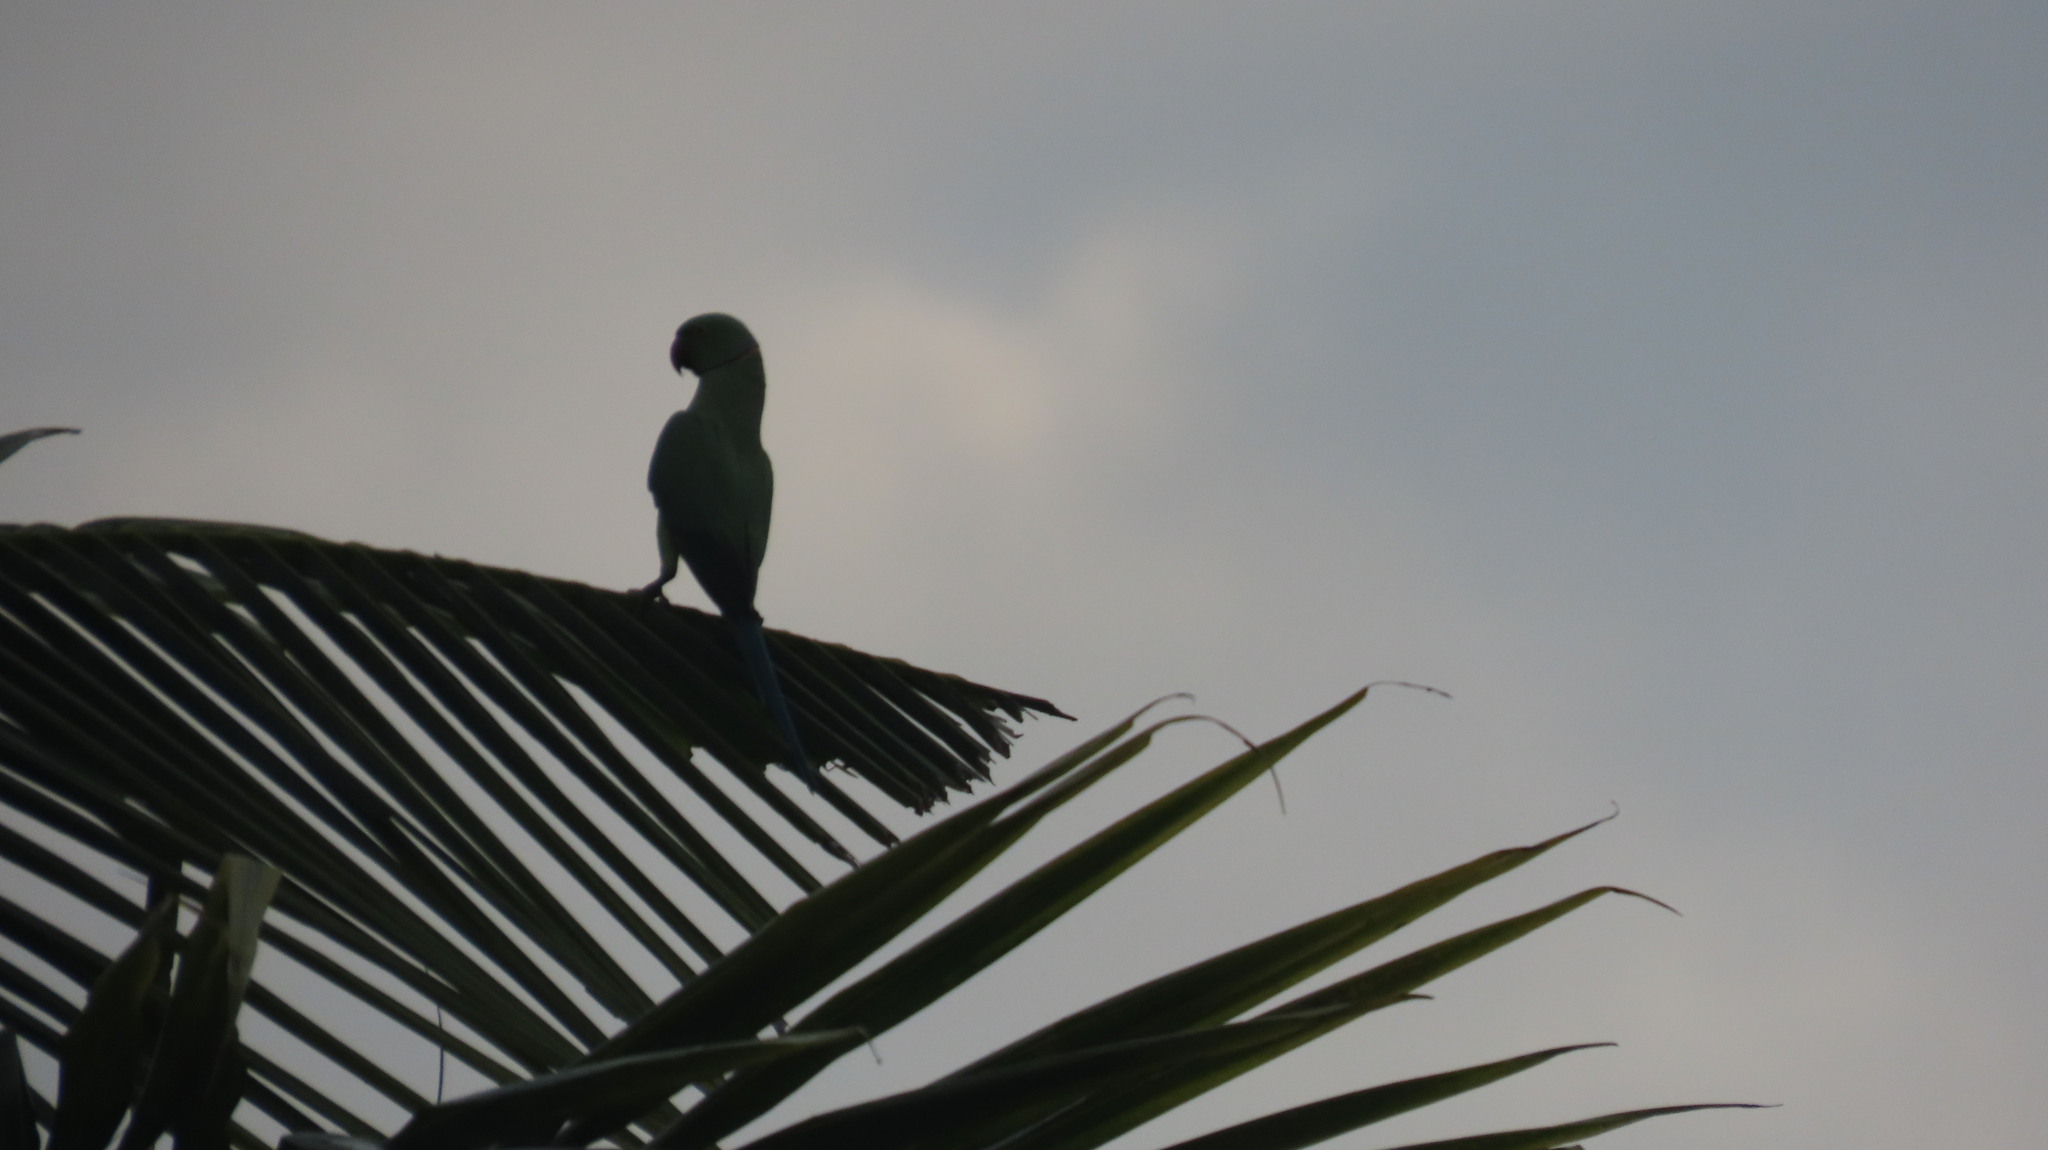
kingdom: Animalia
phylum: Chordata
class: Aves
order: Psittaciformes
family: Psittacidae
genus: Psittacula
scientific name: Psittacula krameri
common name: Rose-ringed parakeet
